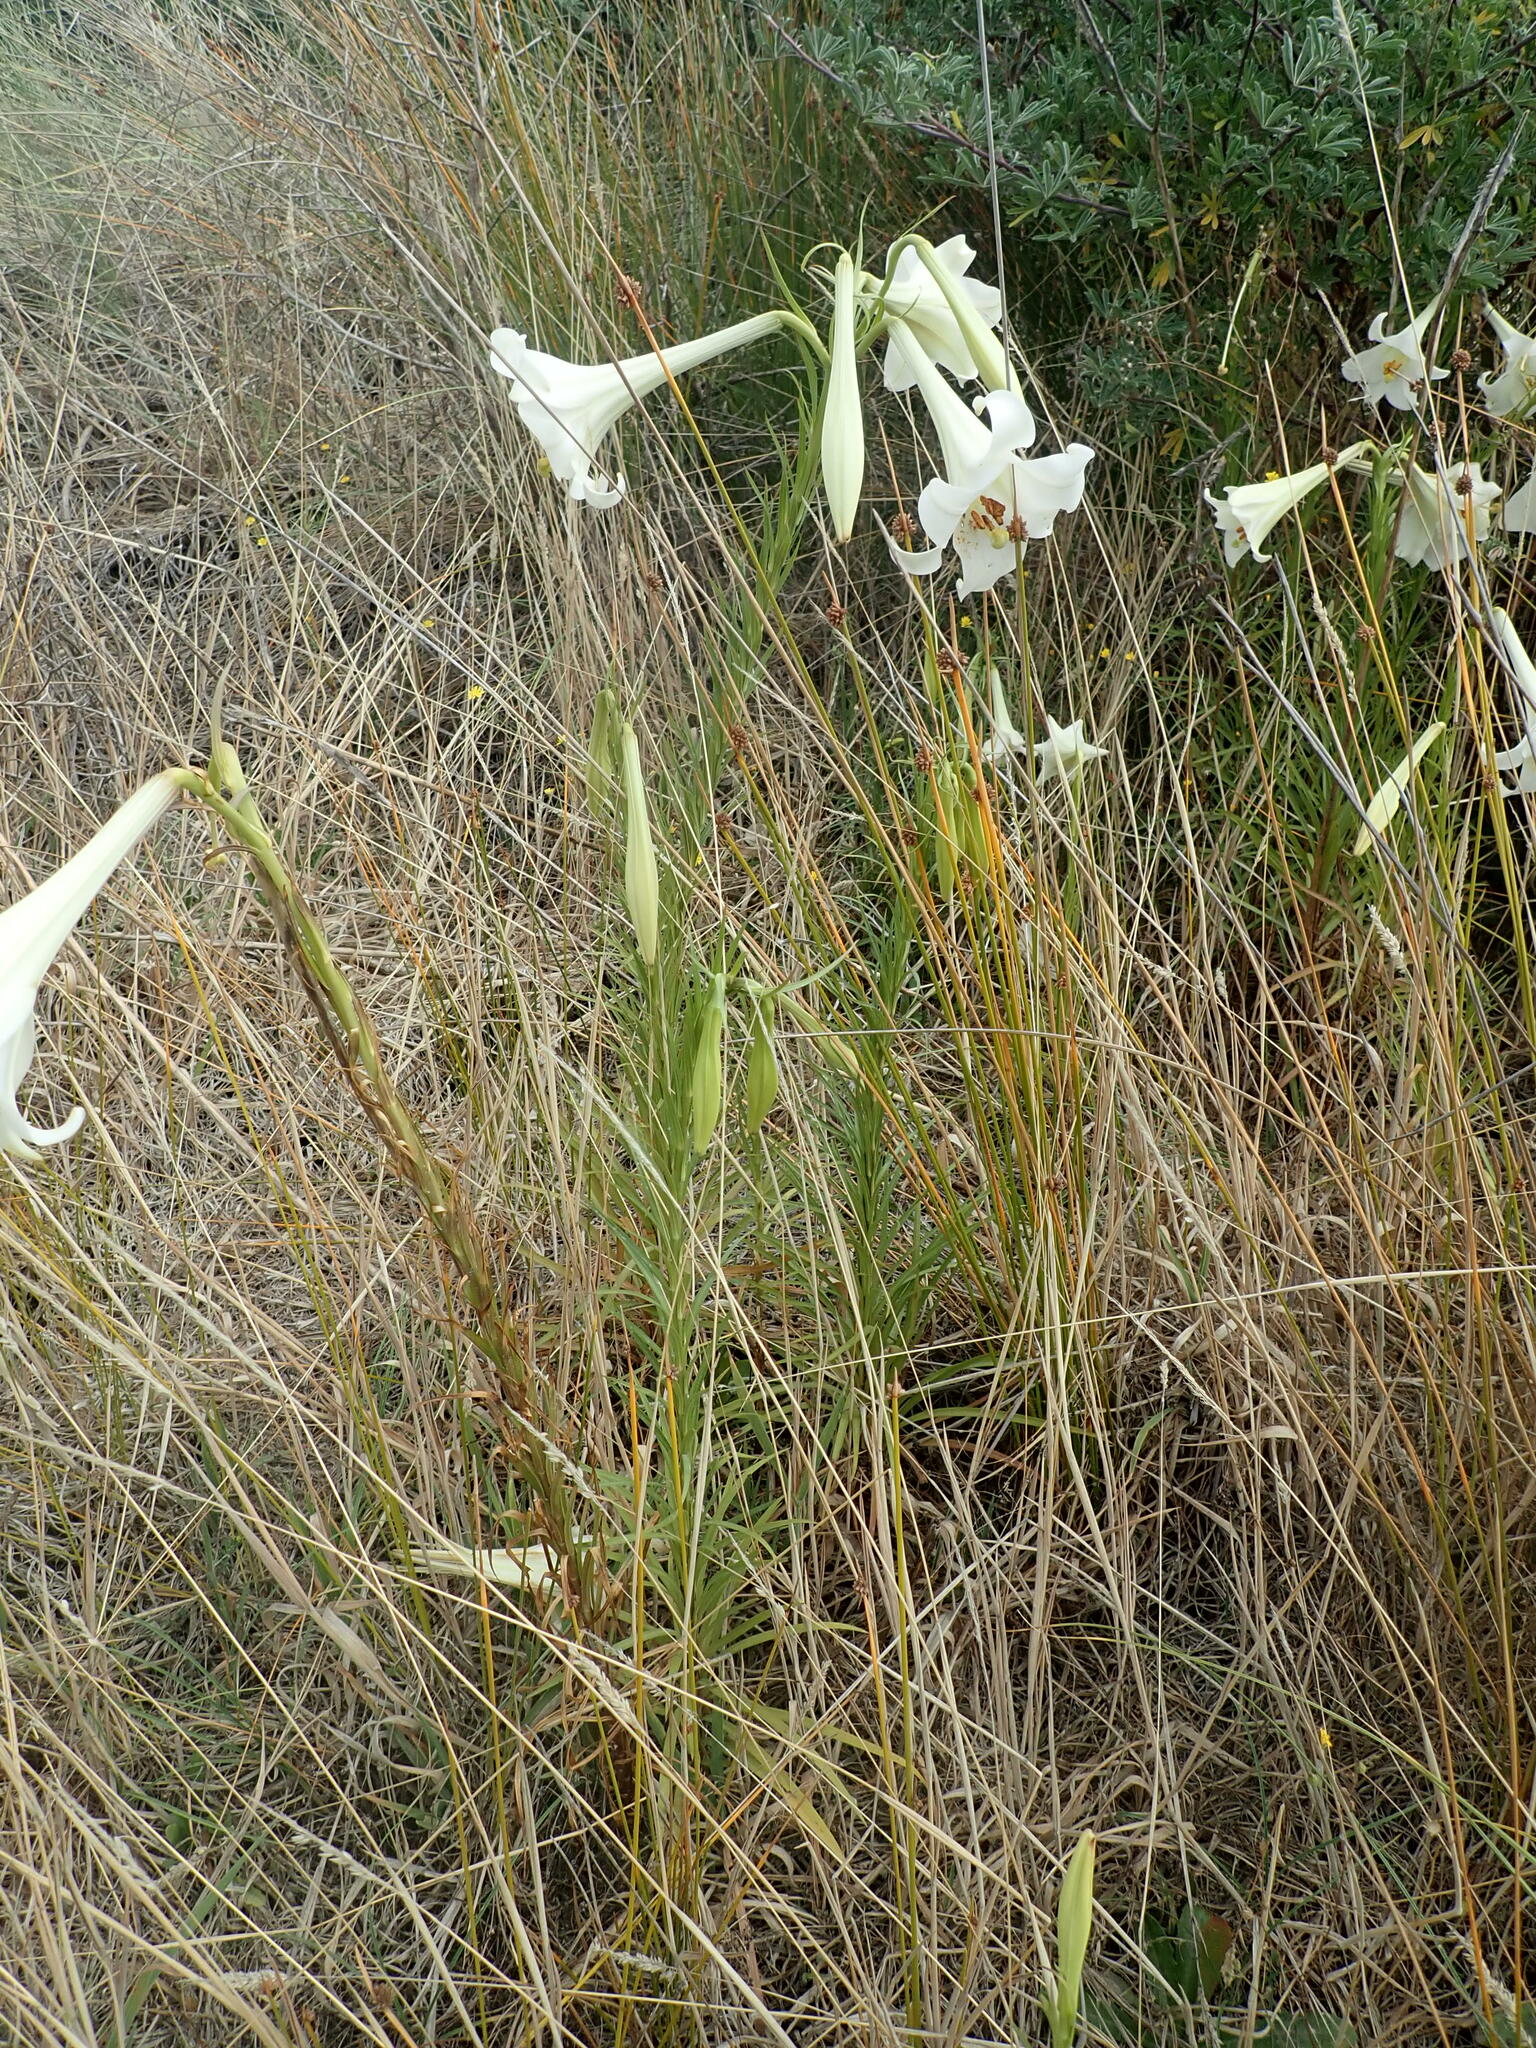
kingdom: Plantae
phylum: Tracheophyta
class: Liliopsida
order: Liliales
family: Liliaceae
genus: Lilium
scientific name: Lilium formosanum
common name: Formosa lily
